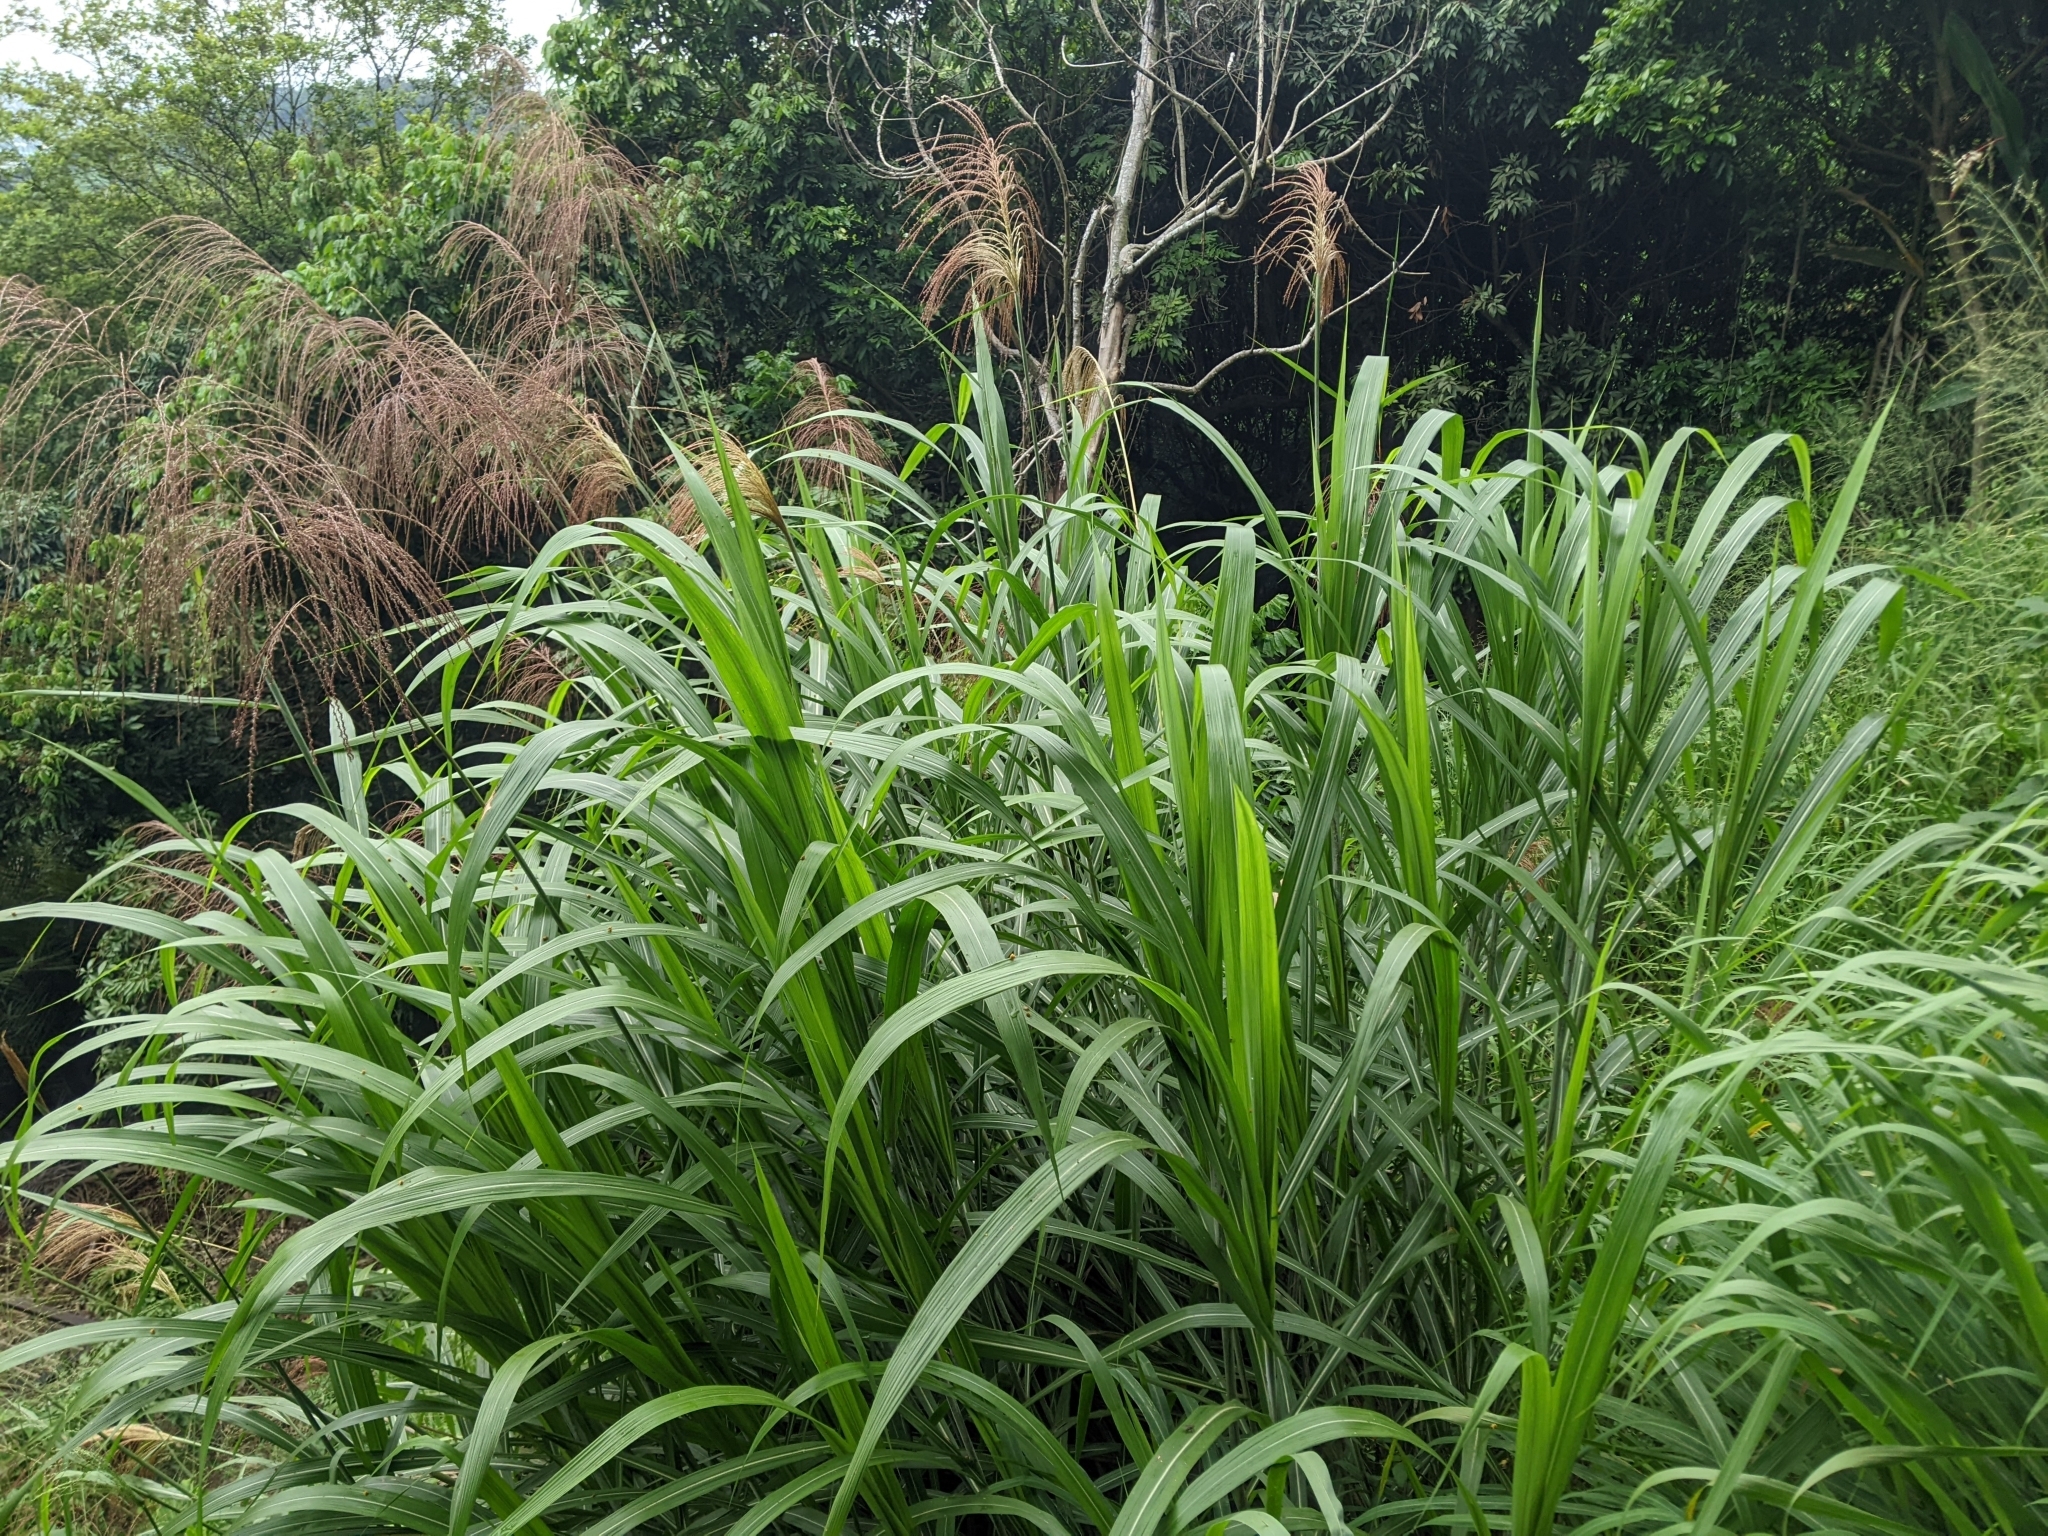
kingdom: Plantae
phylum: Tracheophyta
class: Liliopsida
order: Poales
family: Poaceae
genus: Miscanthus
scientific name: Miscanthus floridulus
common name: Pacific island silvergrass
